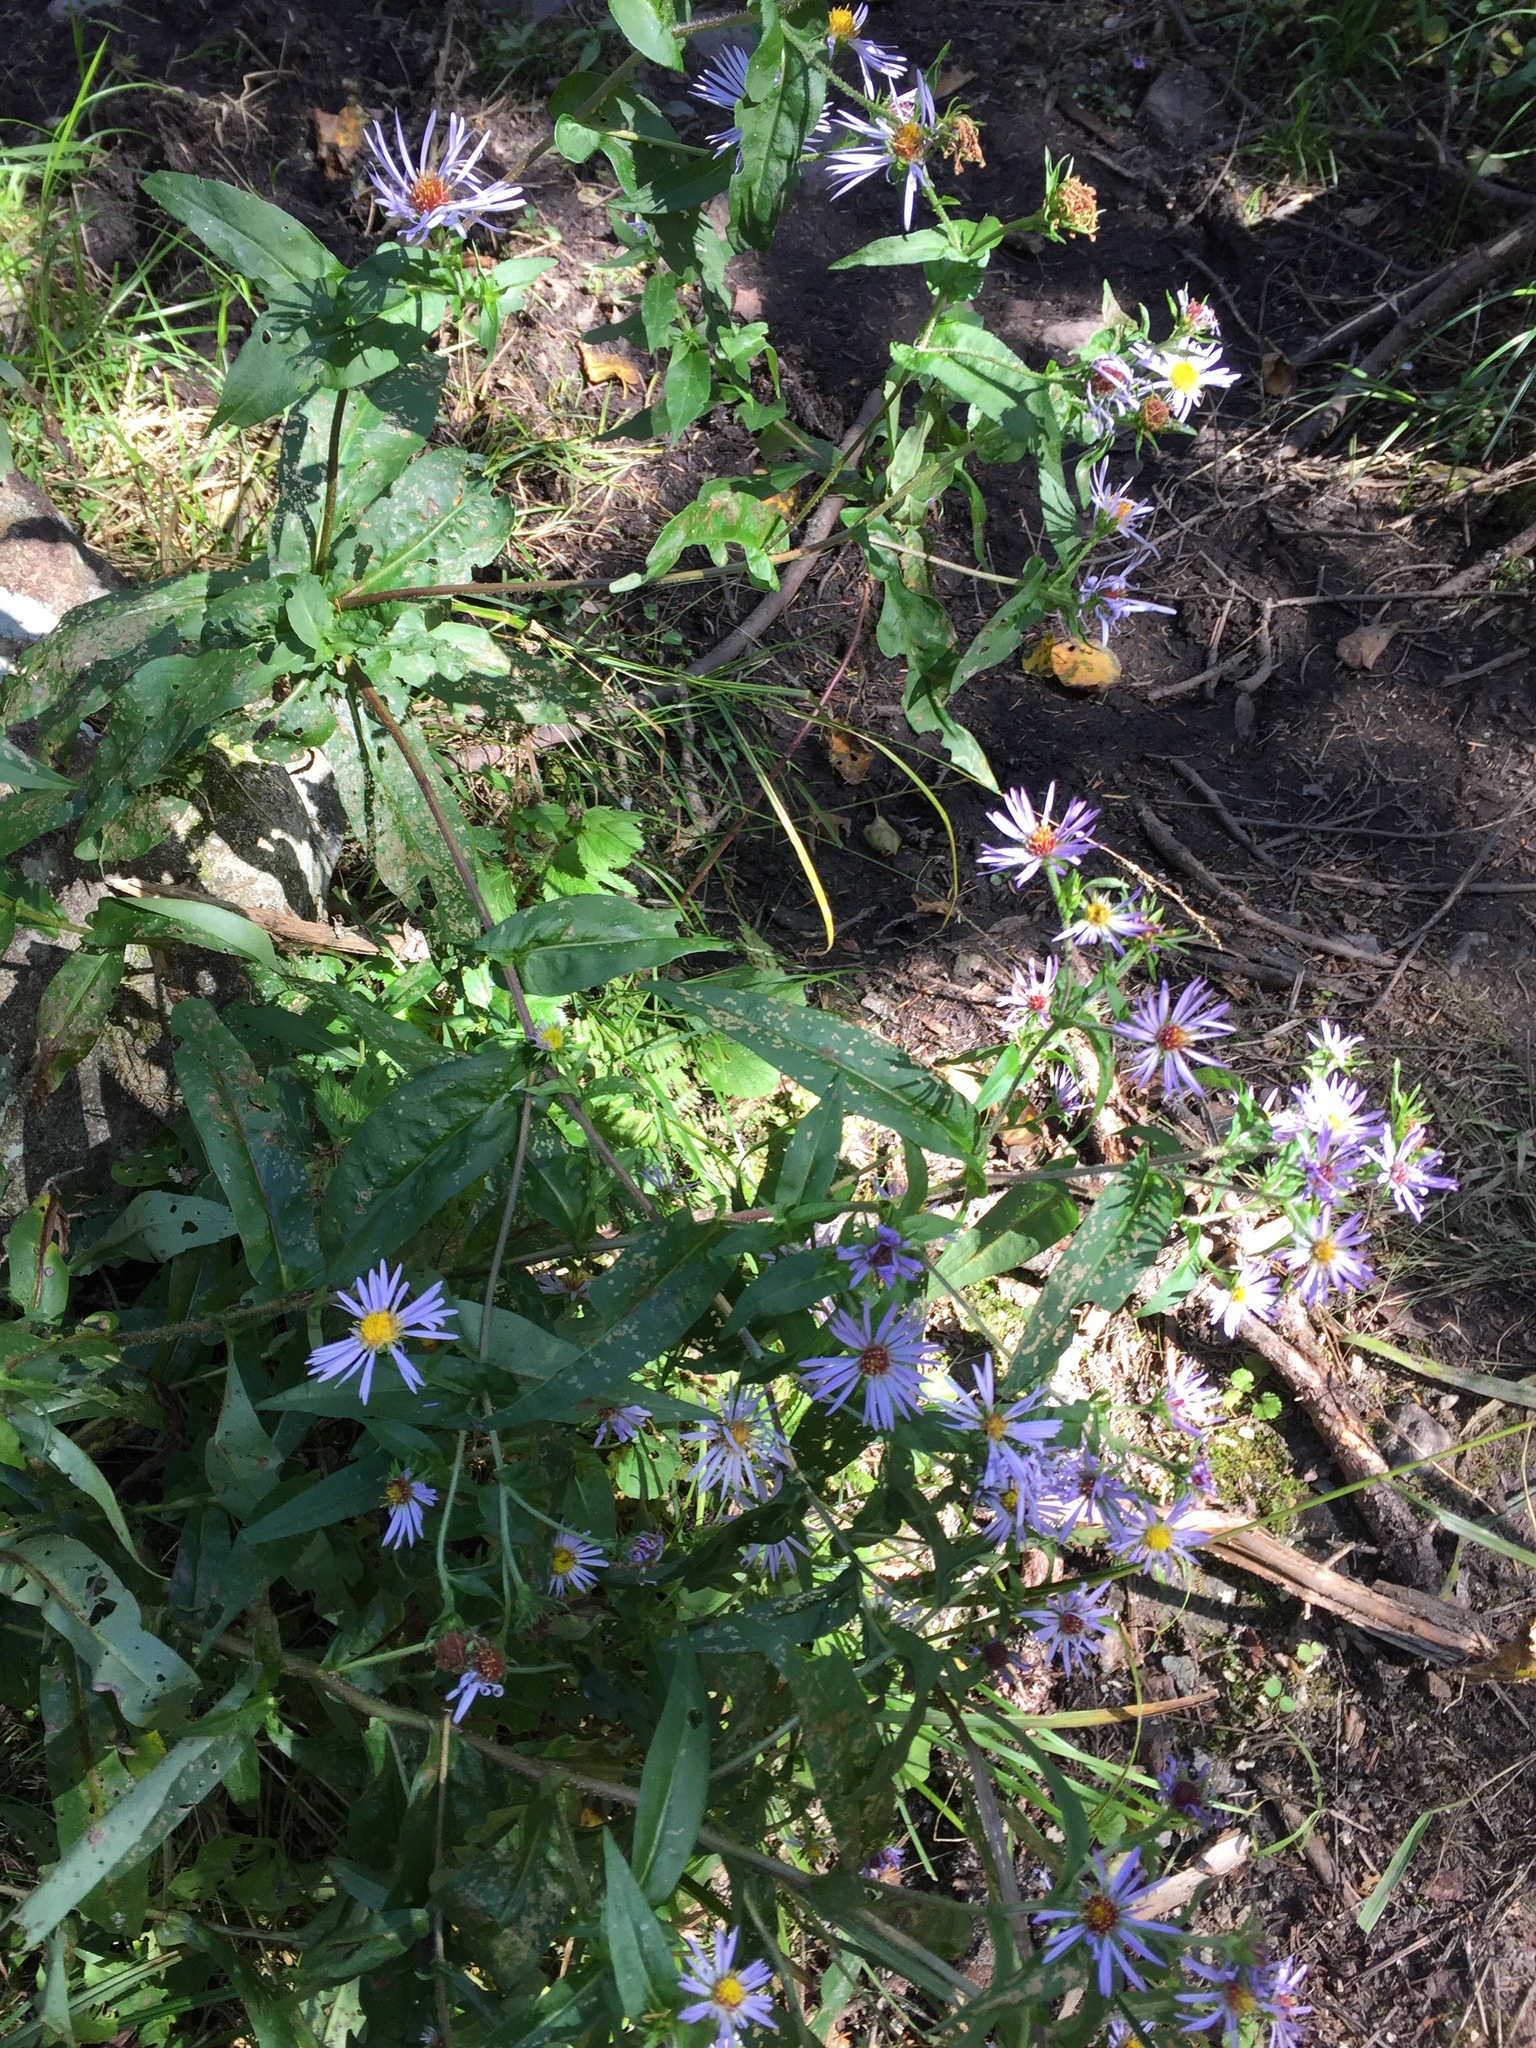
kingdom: Plantae
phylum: Tracheophyta
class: Magnoliopsida
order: Asterales
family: Asteraceae
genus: Symphyotrichum
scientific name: Symphyotrichum puniceum
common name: Bog aster
